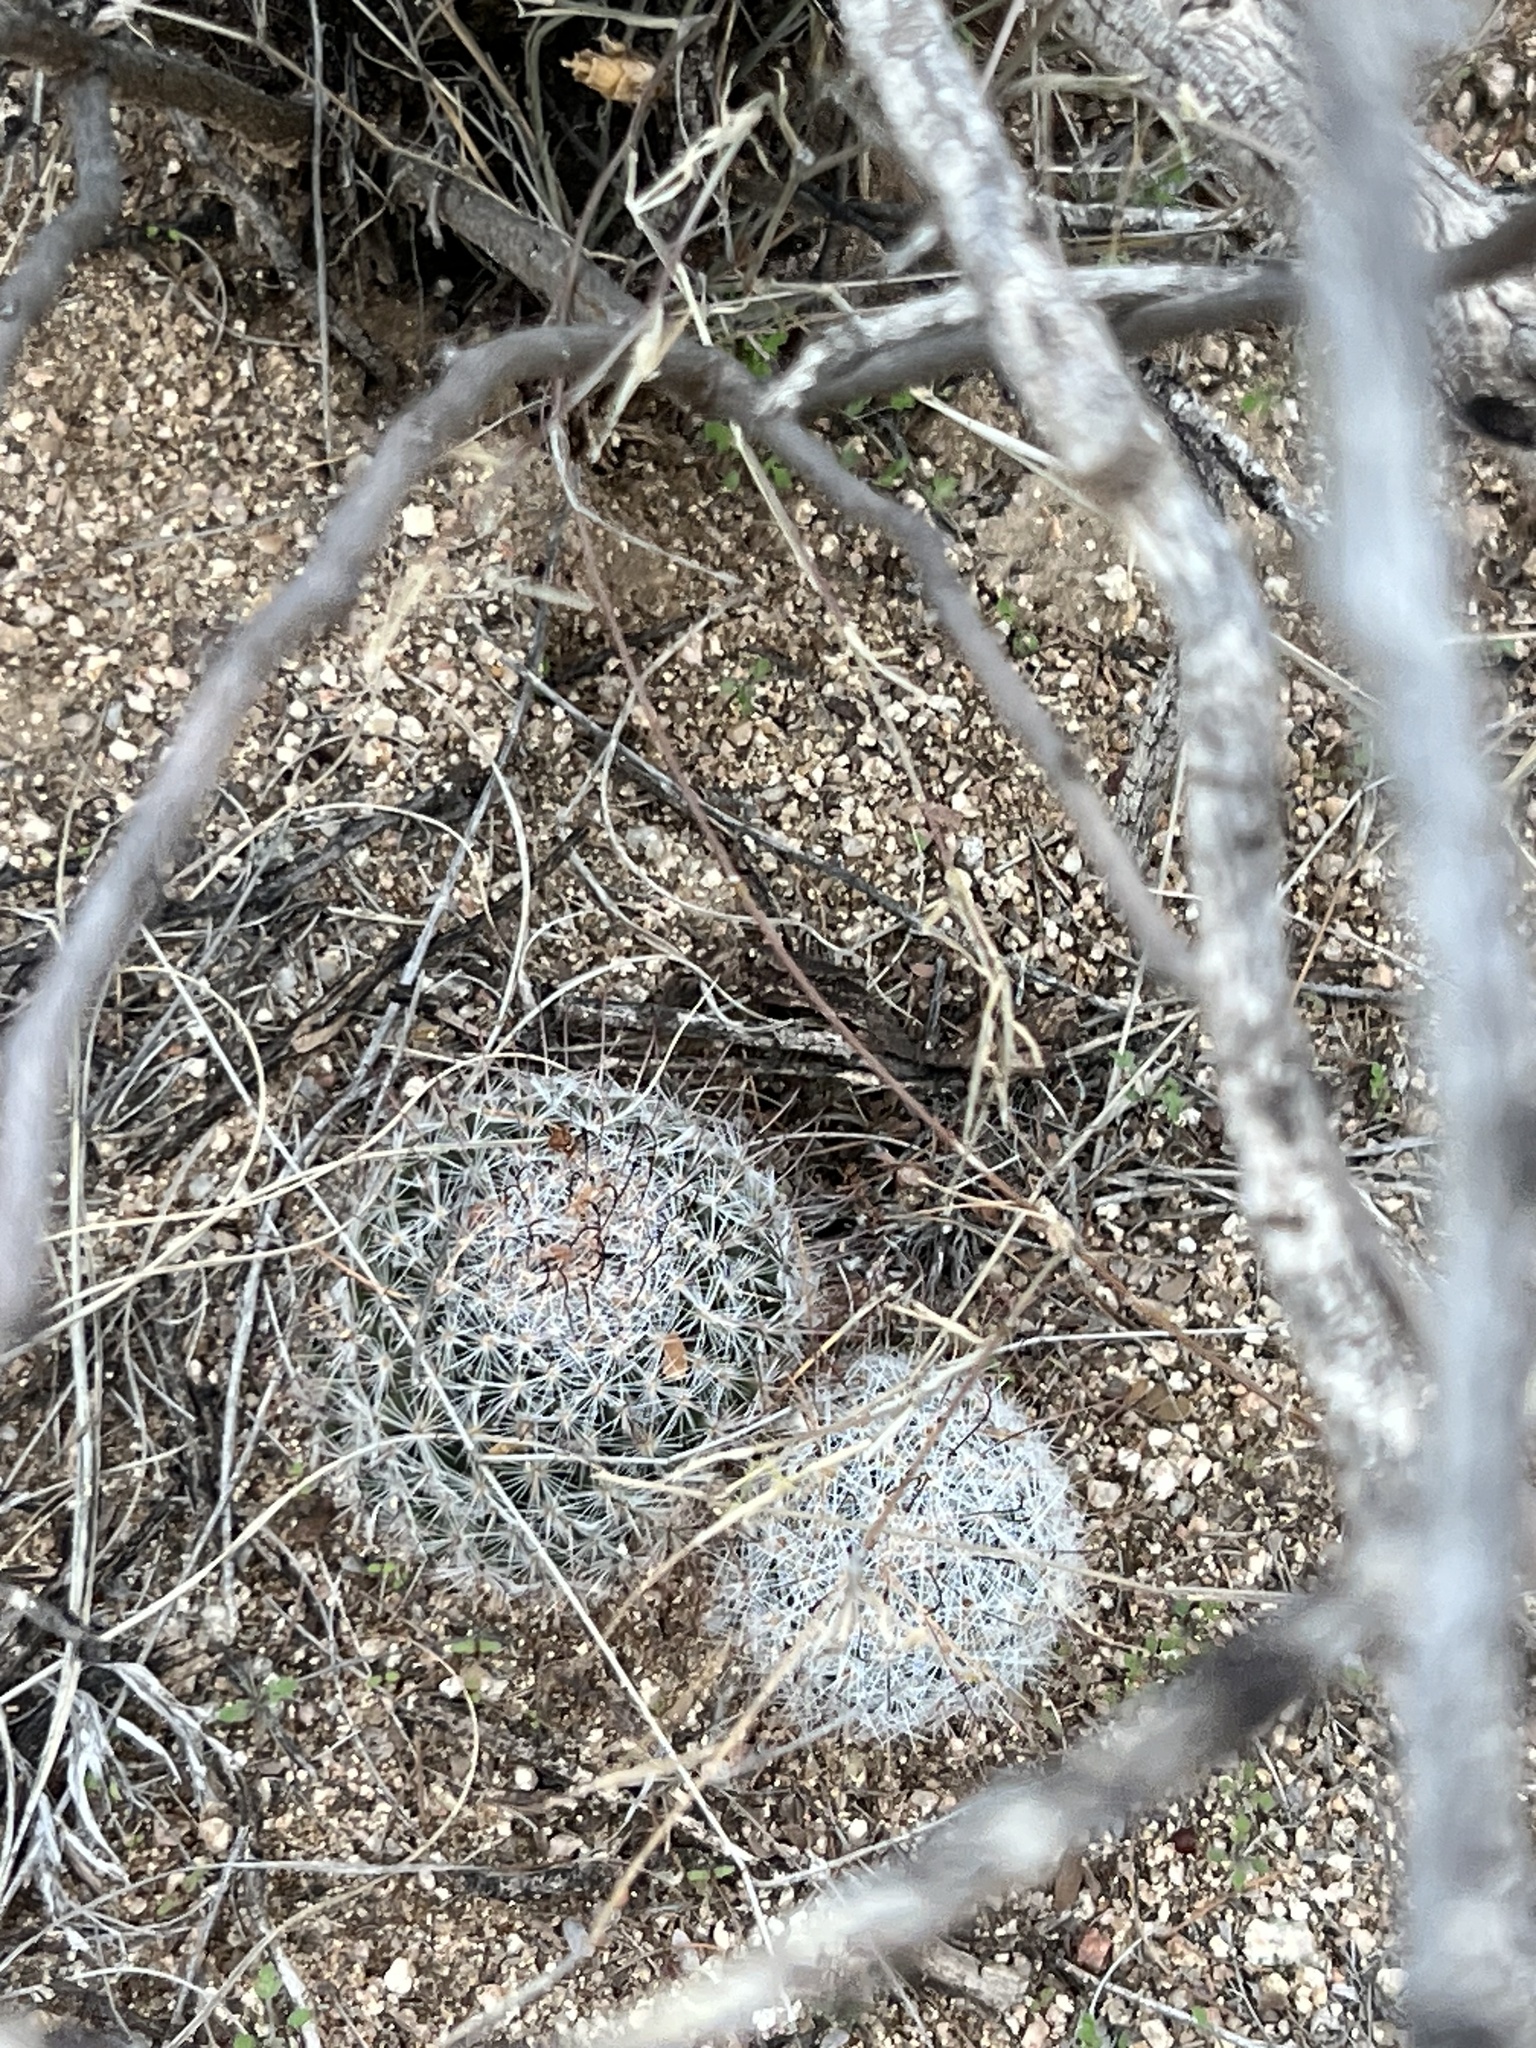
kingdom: Plantae
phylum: Tracheophyta
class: Magnoliopsida
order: Caryophyllales
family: Cactaceae
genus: Cochemiea
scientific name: Cochemiea grahamii
